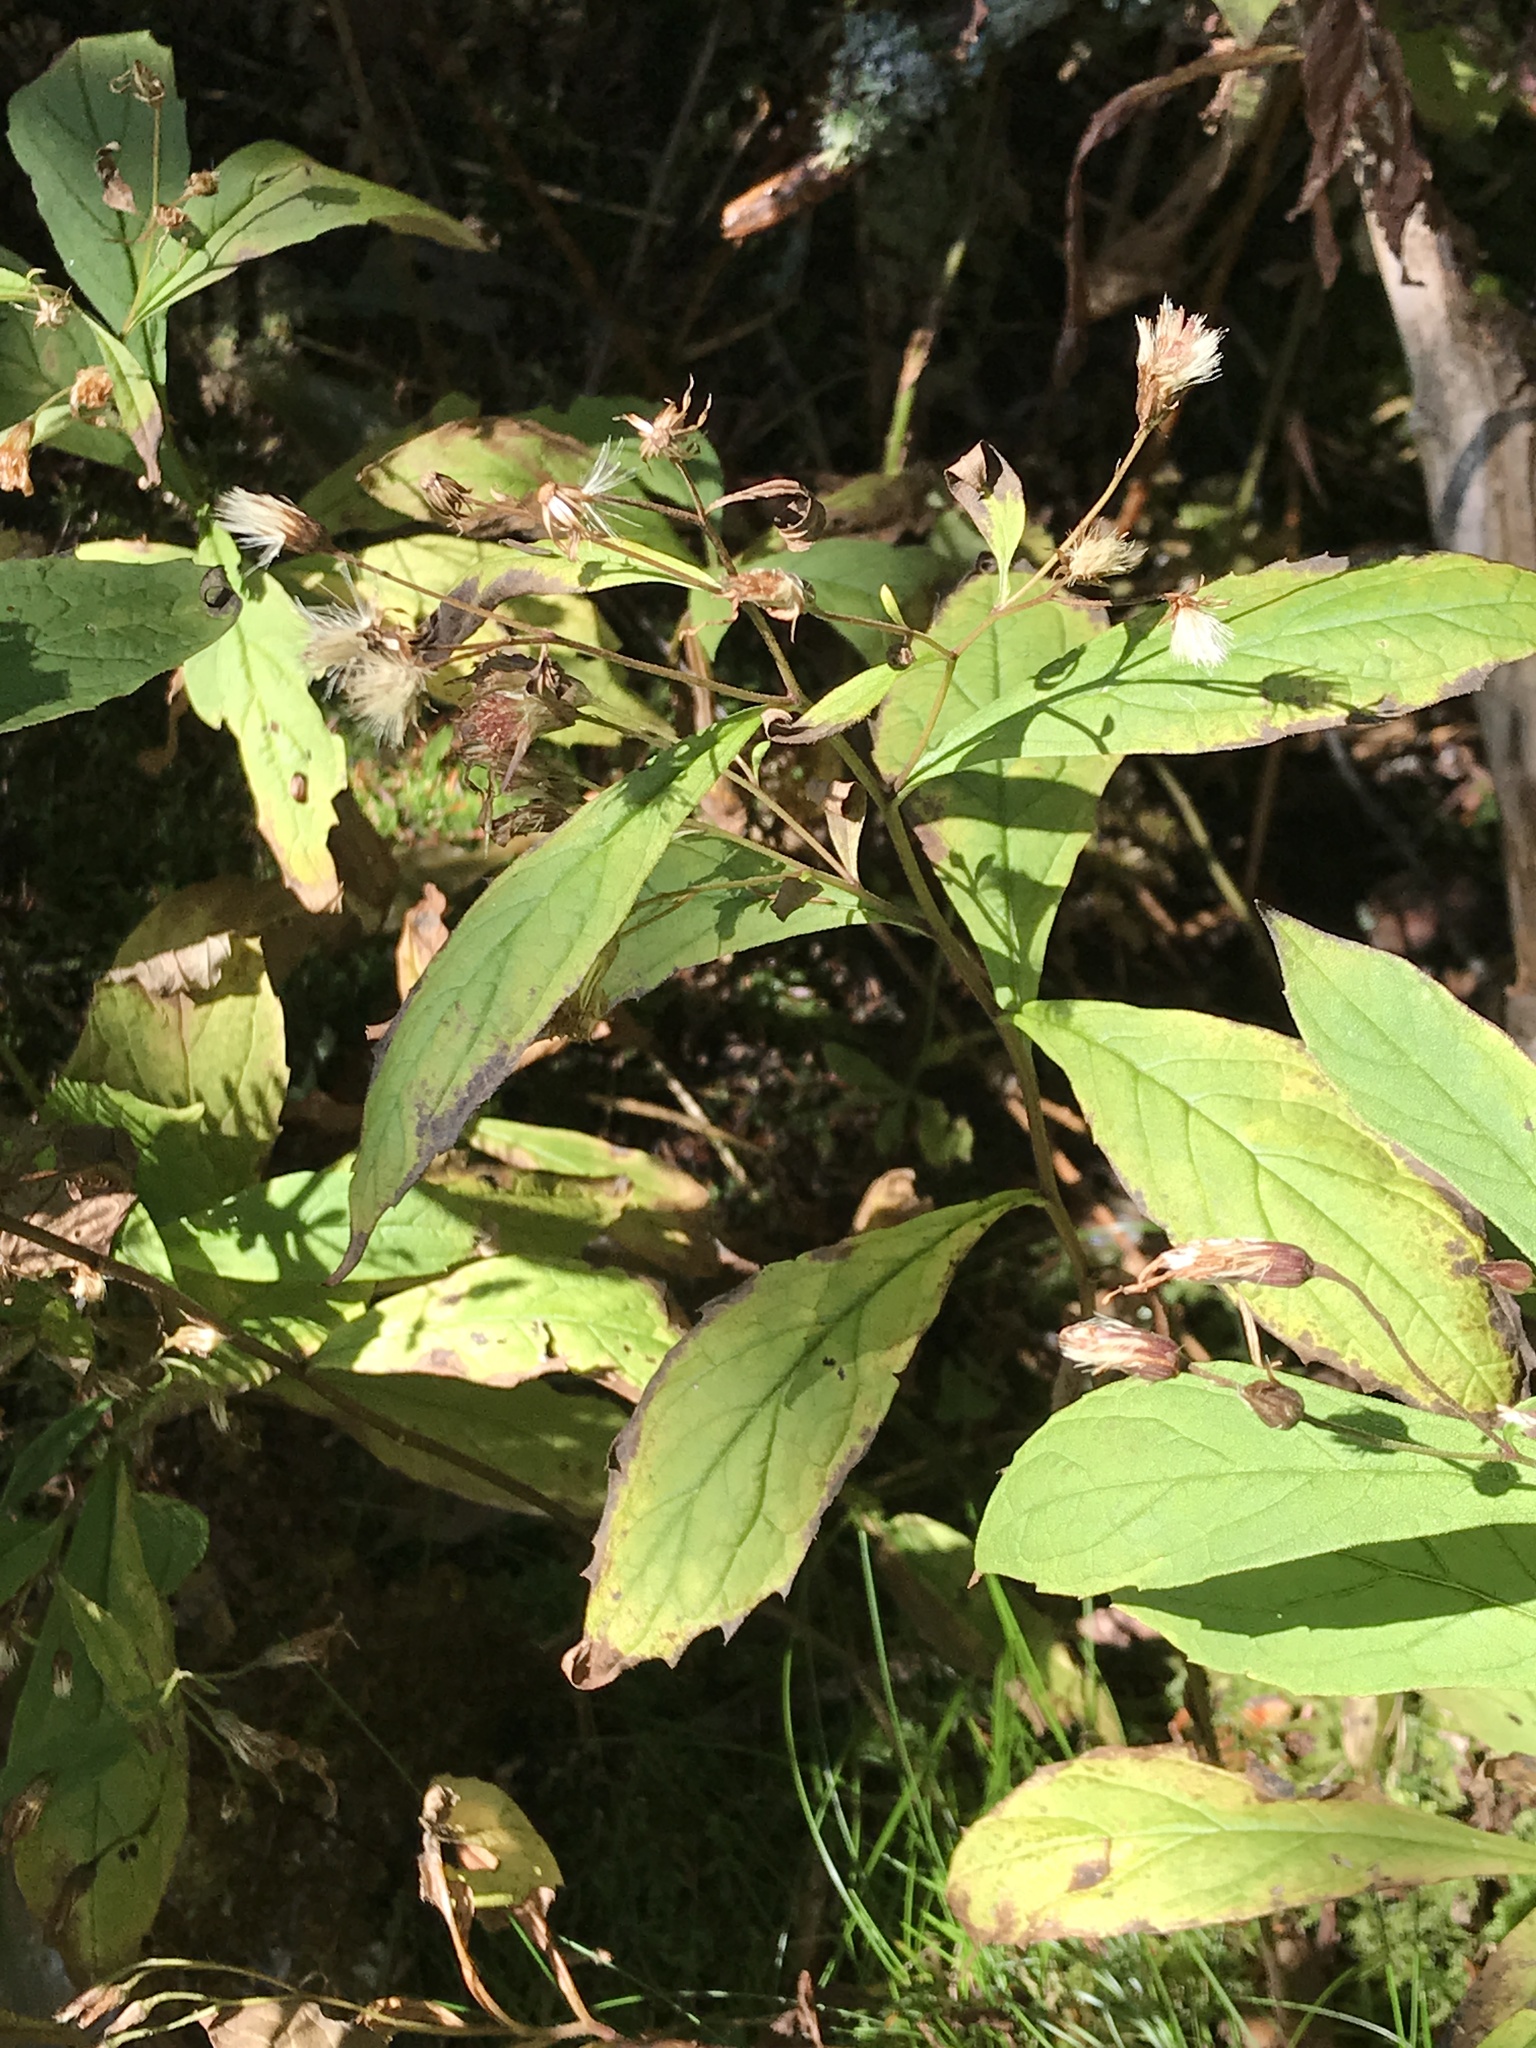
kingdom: Plantae
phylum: Tracheophyta
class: Magnoliopsida
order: Asterales
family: Asteraceae
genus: Oclemena
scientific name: Oclemena acuminata
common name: Mountain aster
